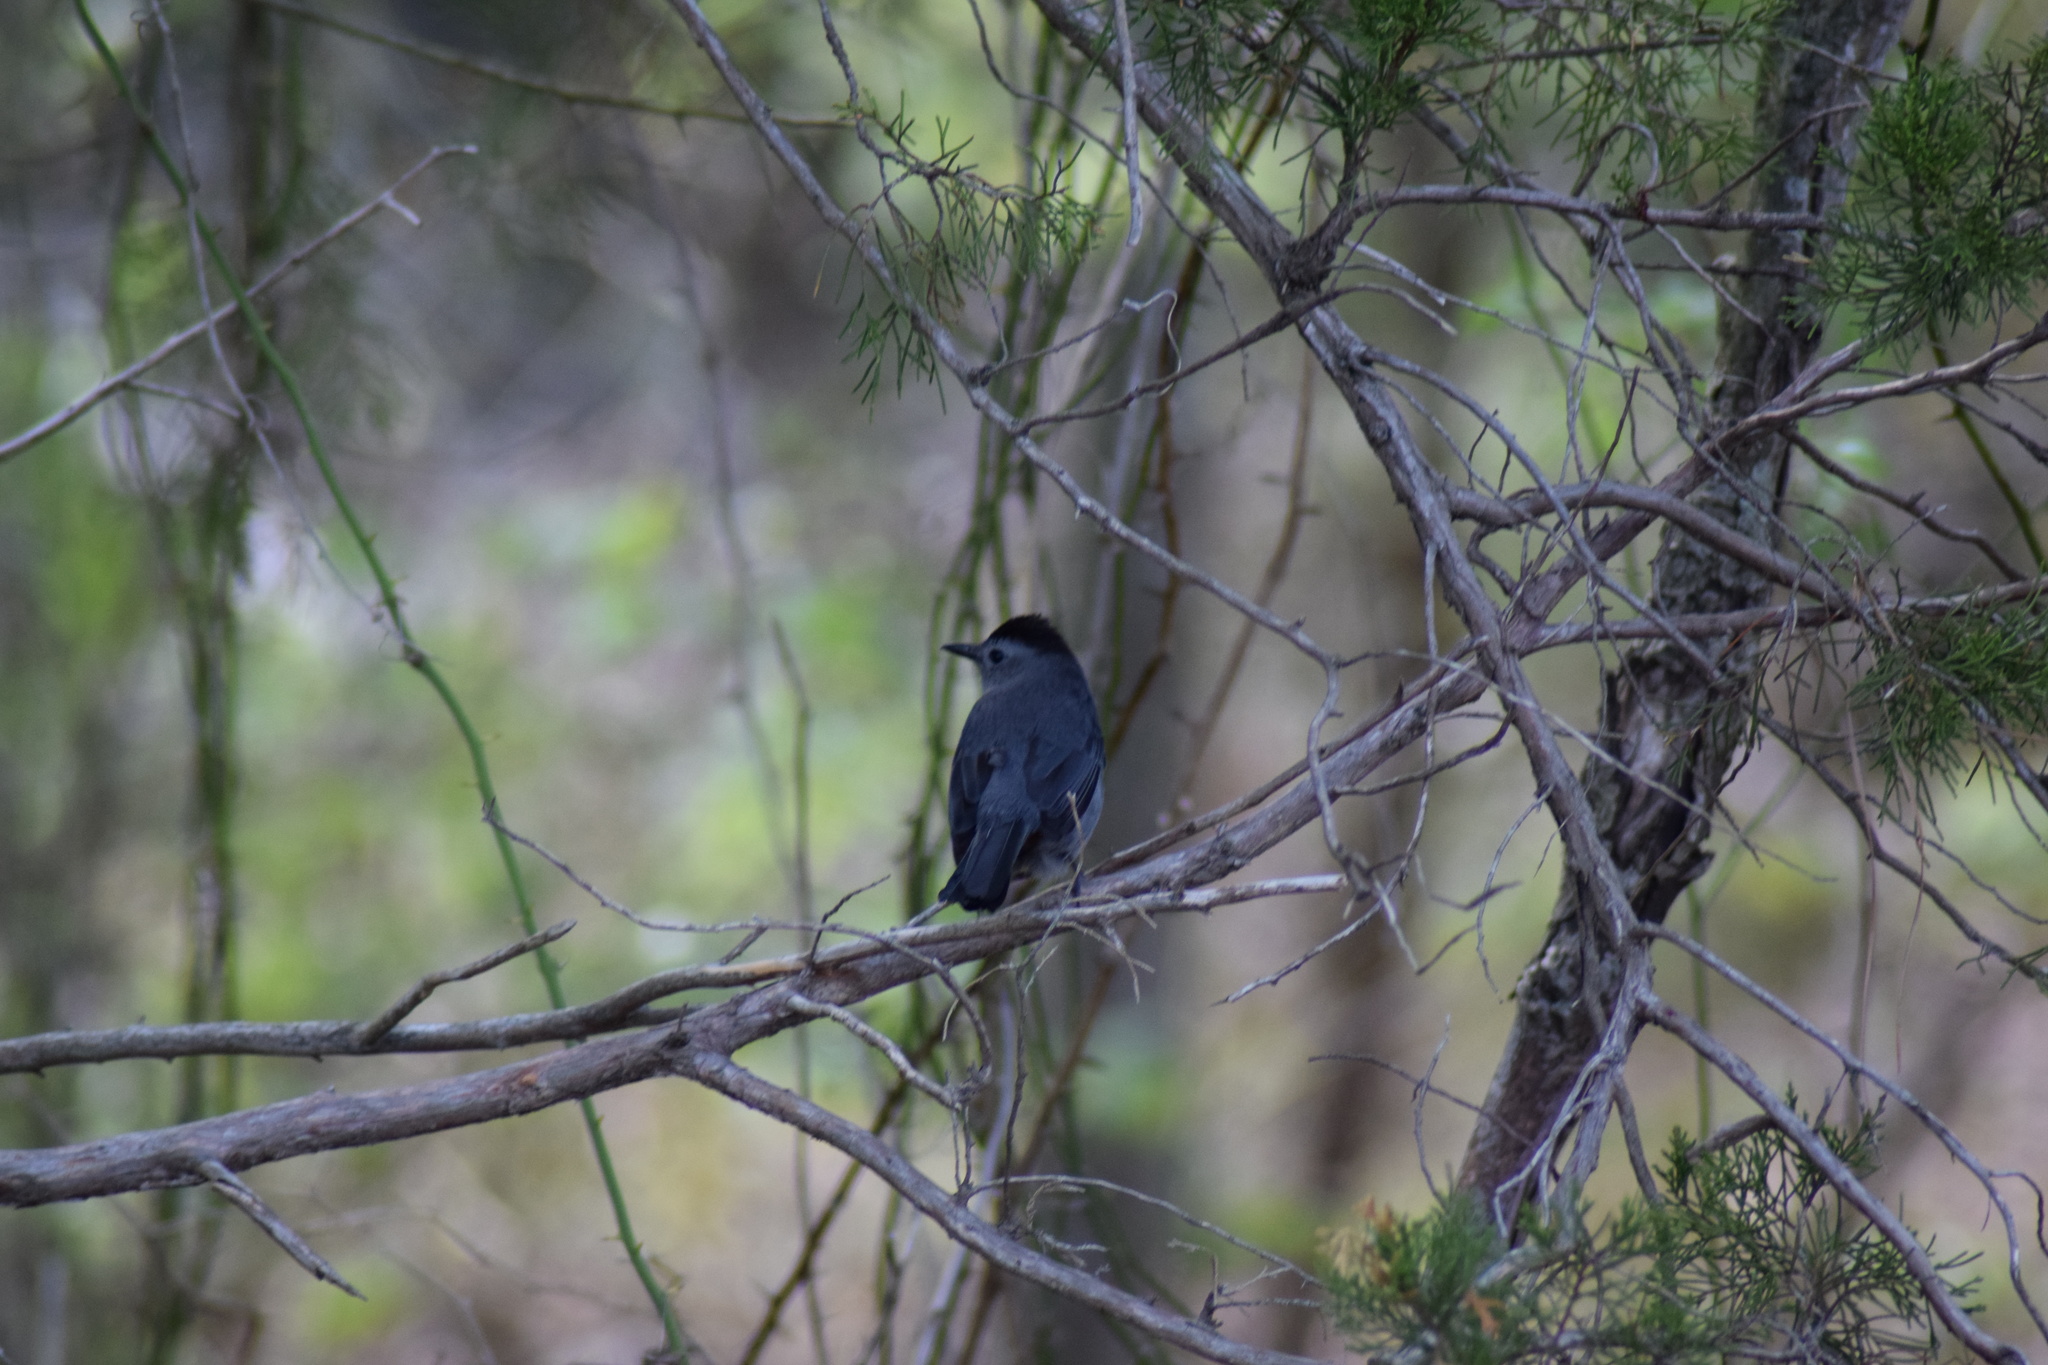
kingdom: Animalia
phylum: Chordata
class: Aves
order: Passeriformes
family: Mimidae
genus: Dumetella
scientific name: Dumetella carolinensis
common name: Gray catbird
